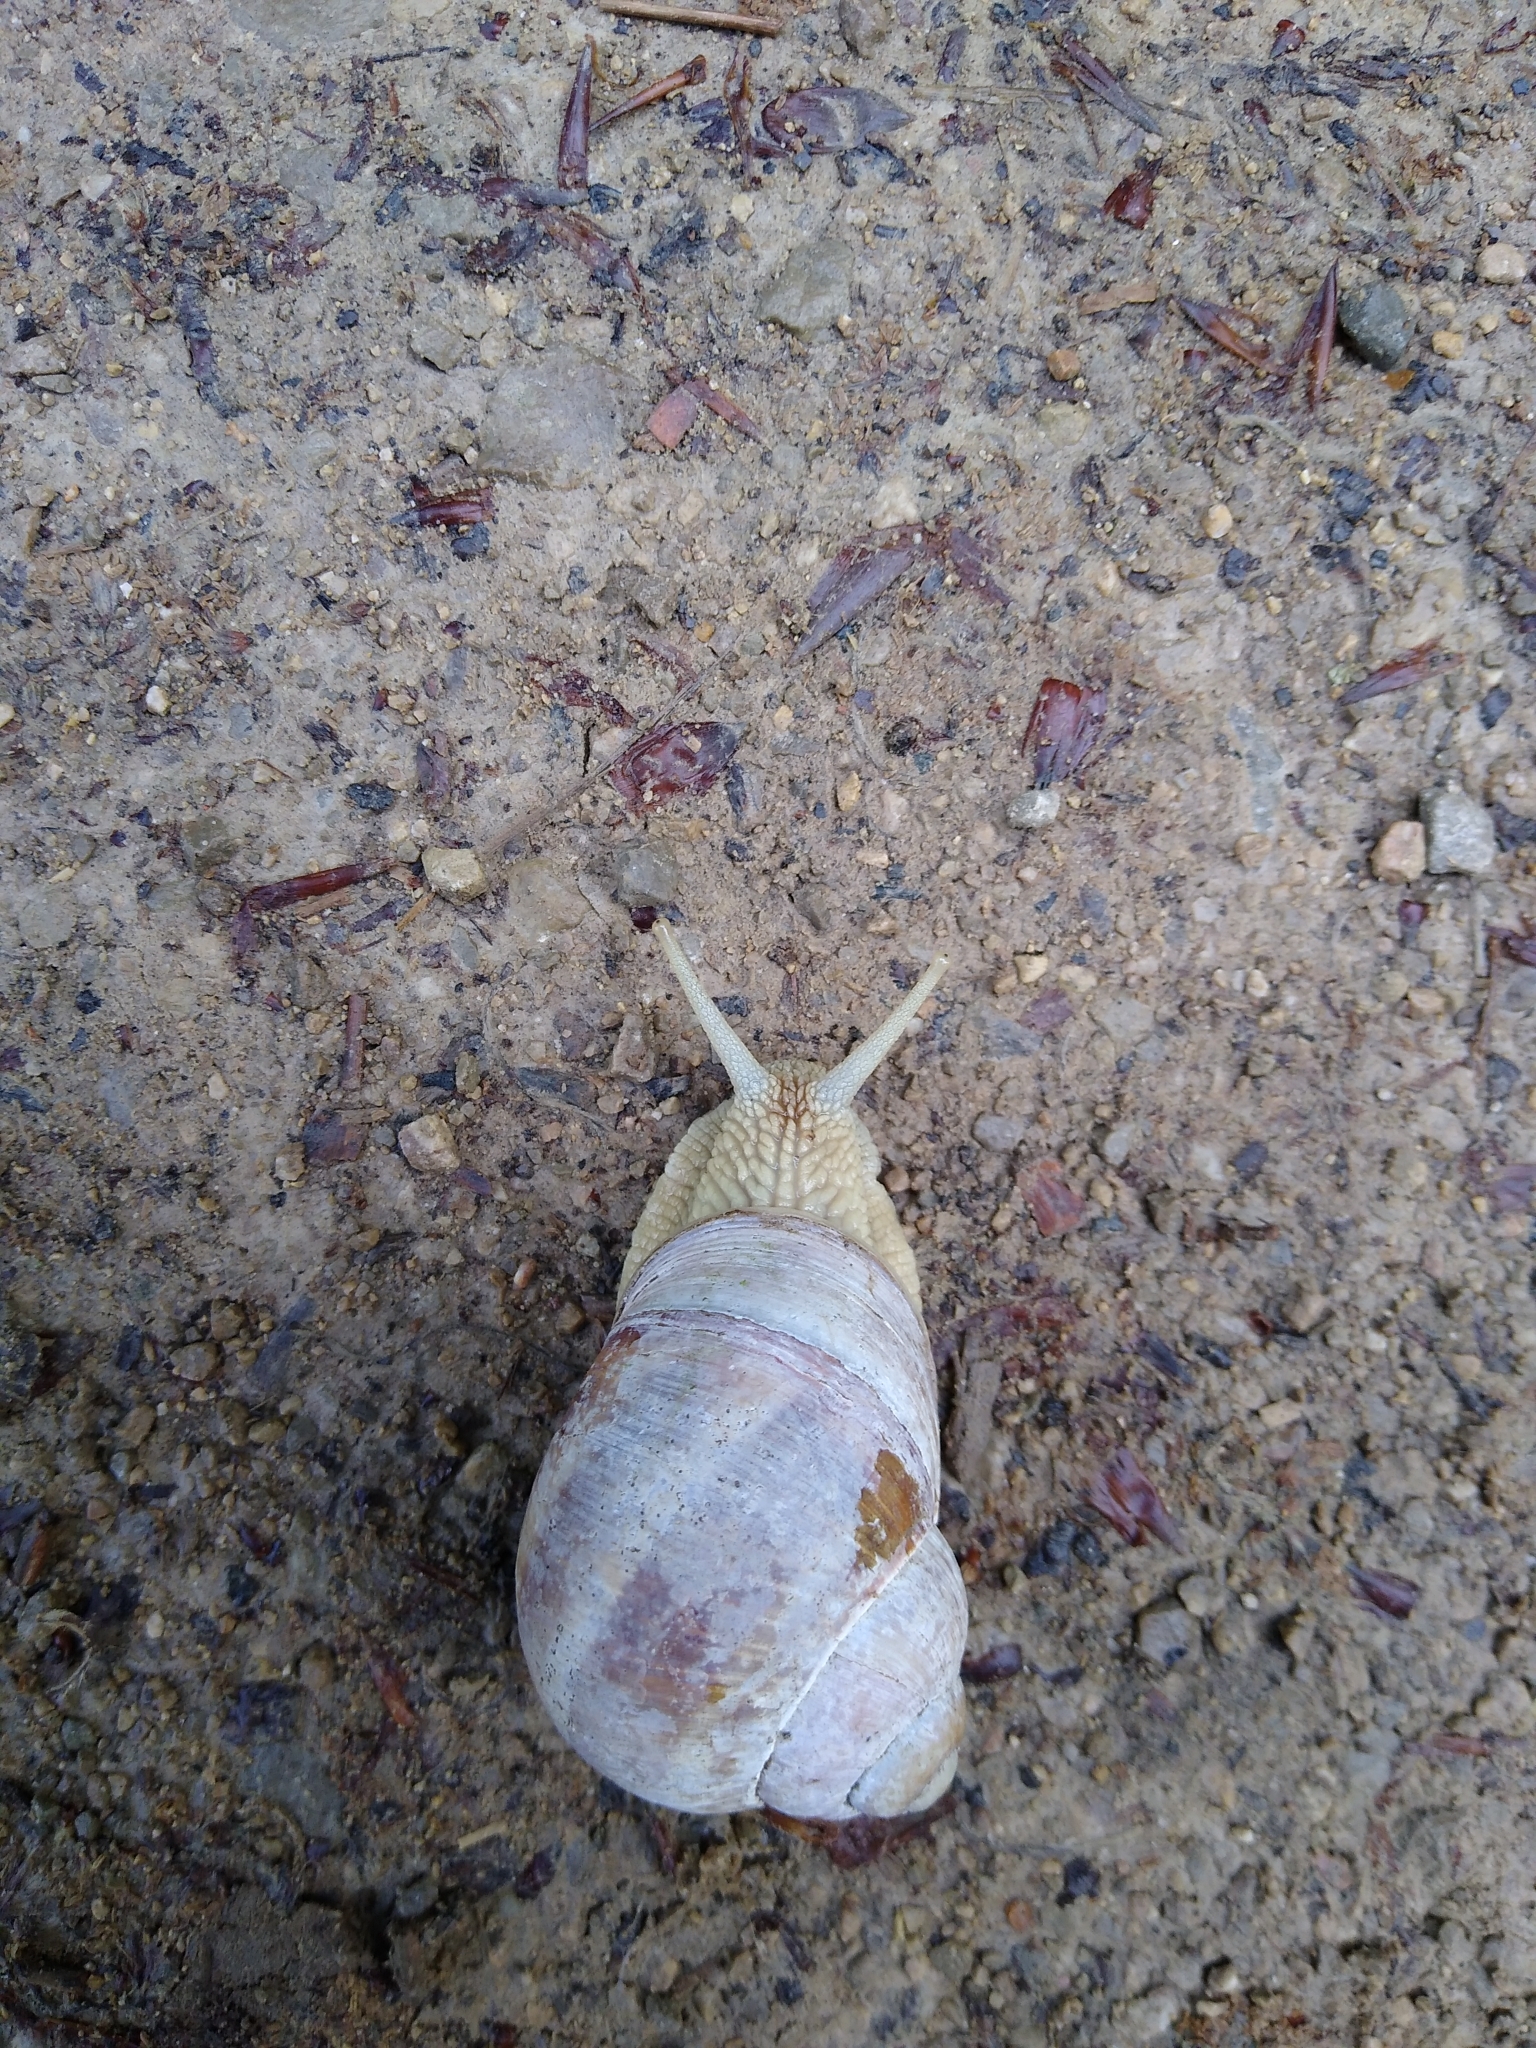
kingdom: Animalia
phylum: Mollusca
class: Gastropoda
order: Stylommatophora
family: Helicidae
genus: Helix
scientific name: Helix pomatia
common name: Roman snail
